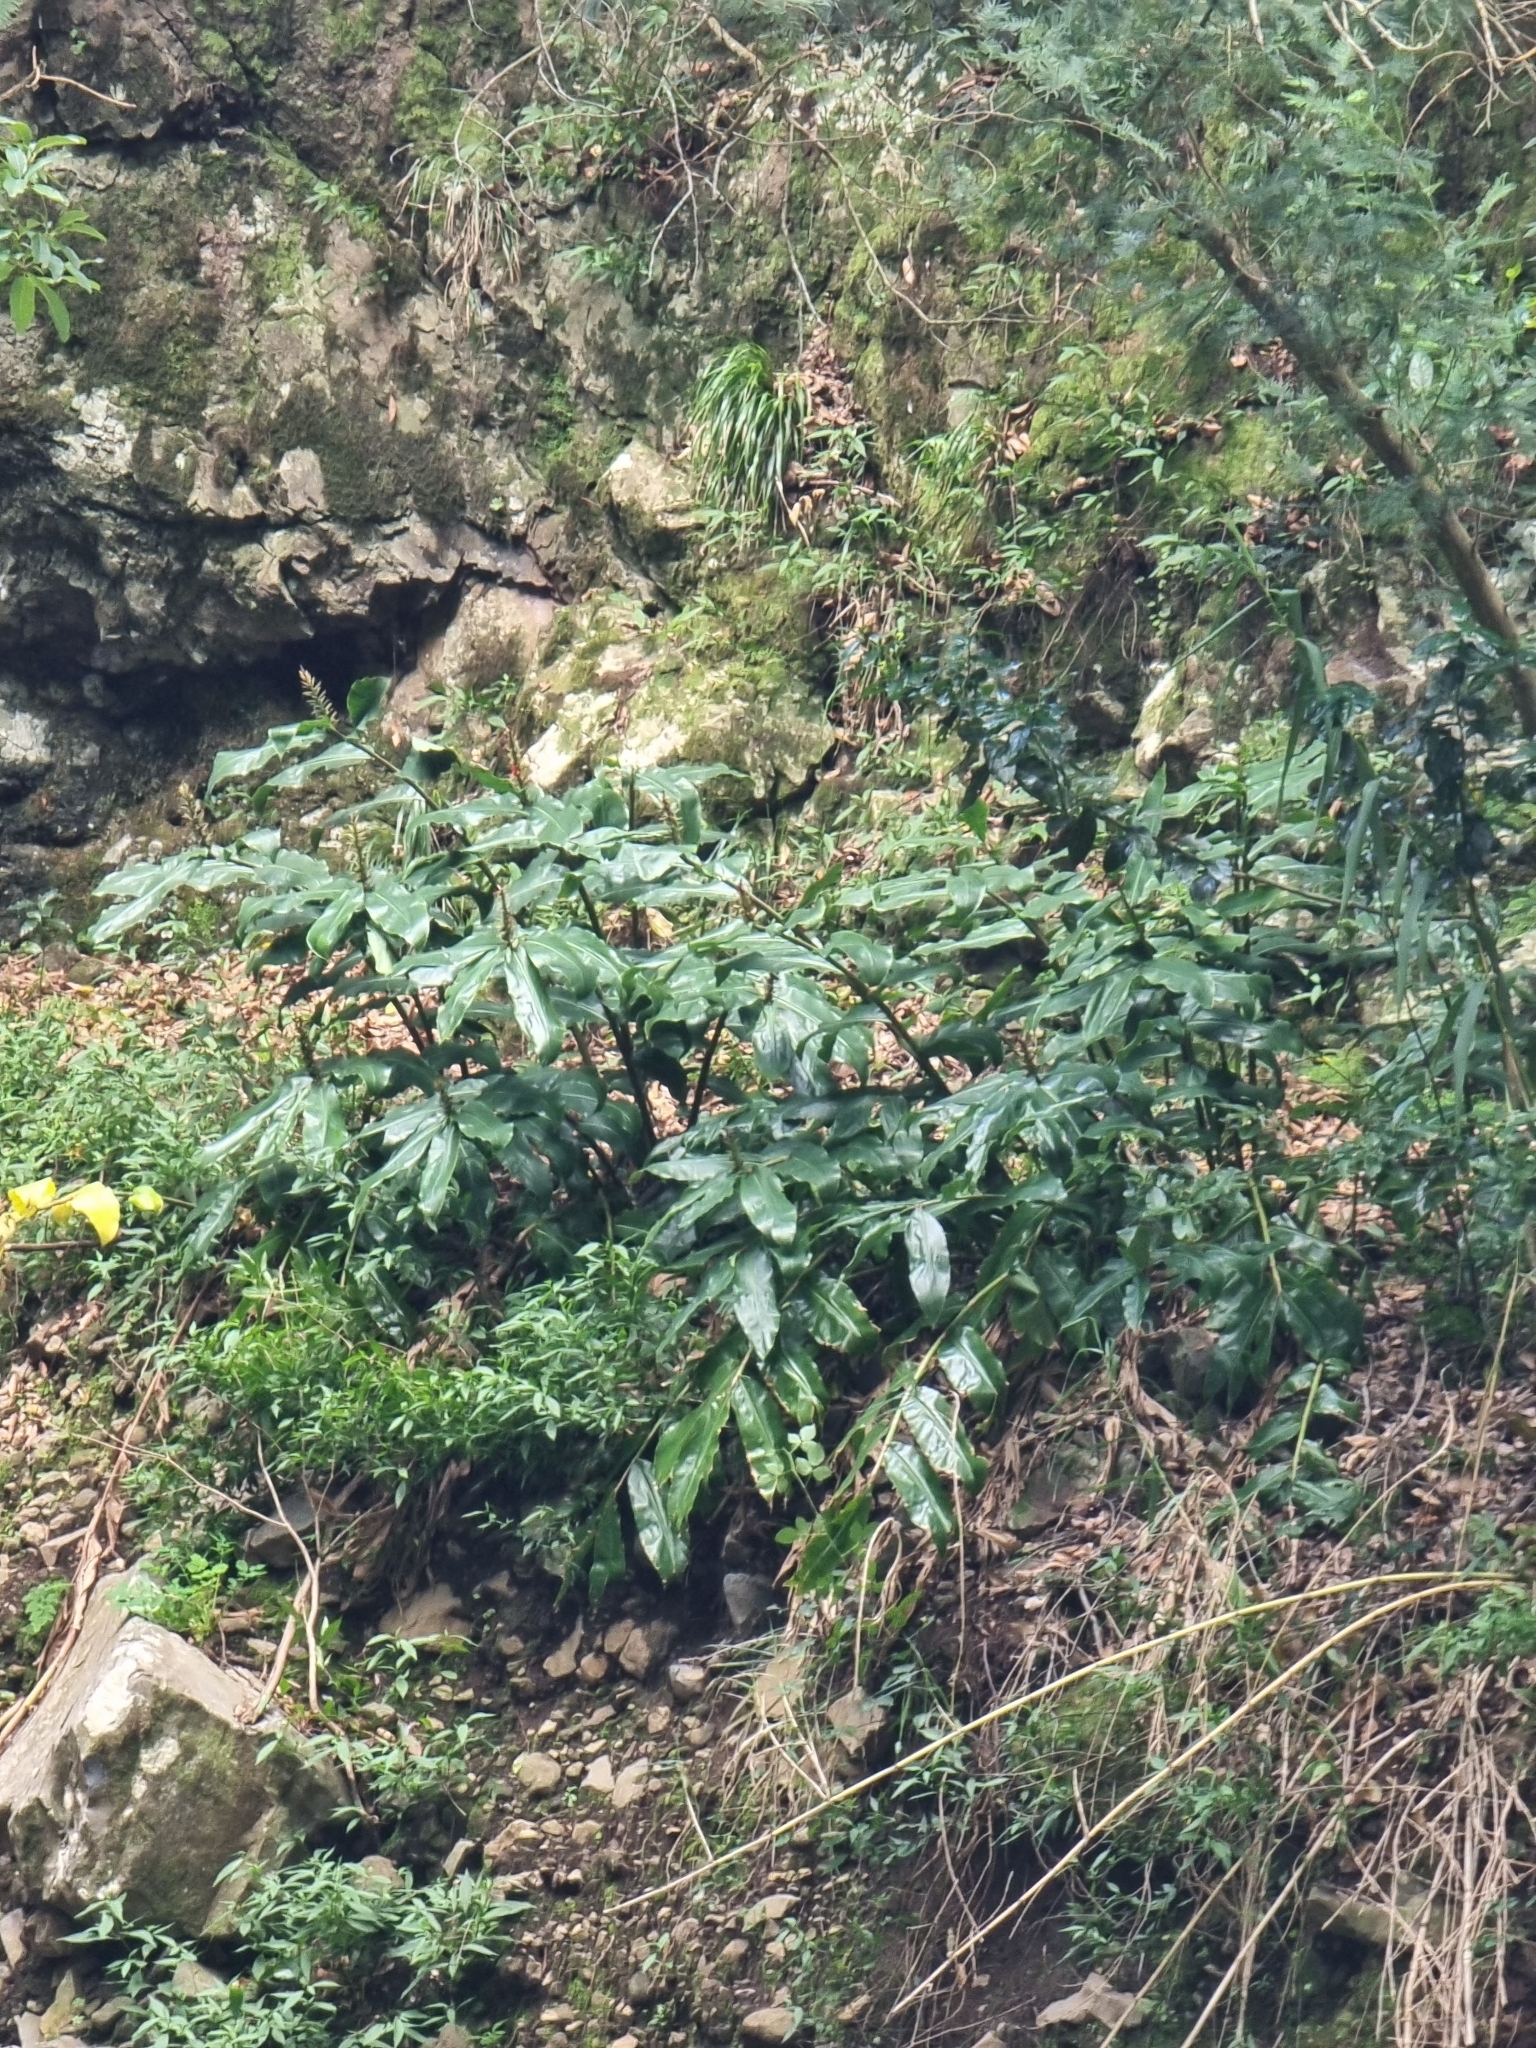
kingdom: Plantae
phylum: Tracheophyta
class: Liliopsida
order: Zingiberales
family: Zingiberaceae
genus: Hedychium
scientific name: Hedychium gardnerianum
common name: Himalayan ginger
